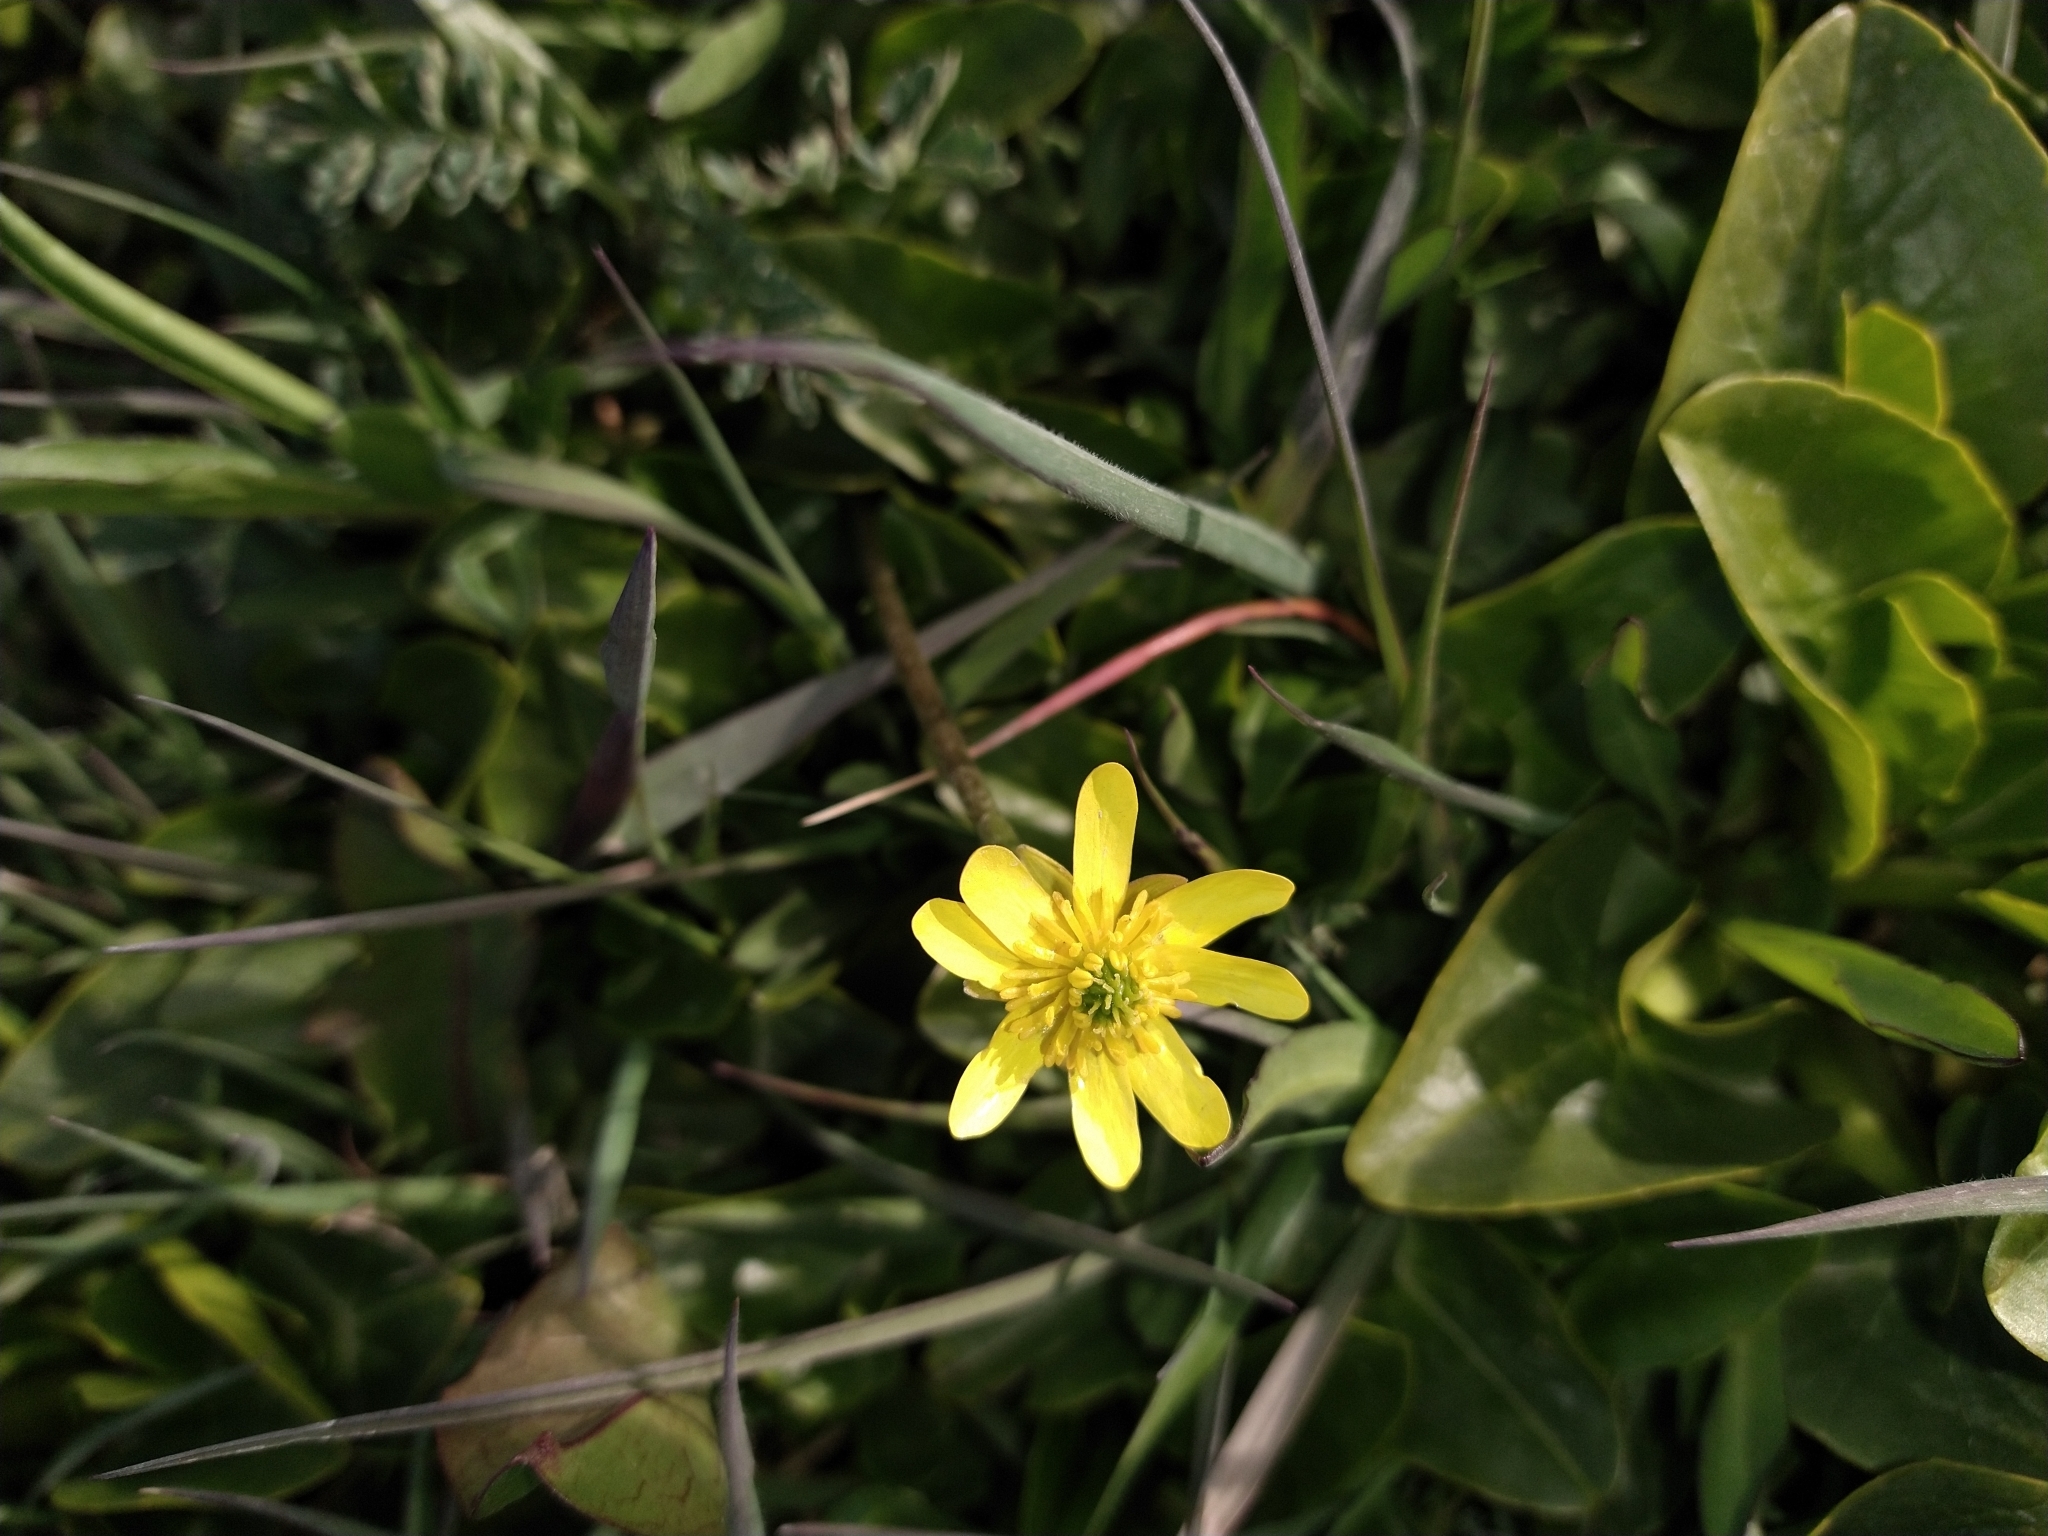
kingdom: Plantae
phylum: Tracheophyta
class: Magnoliopsida
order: Ranunculales
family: Ranunculaceae
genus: Ranunculus
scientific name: Ranunculus peduncularis
